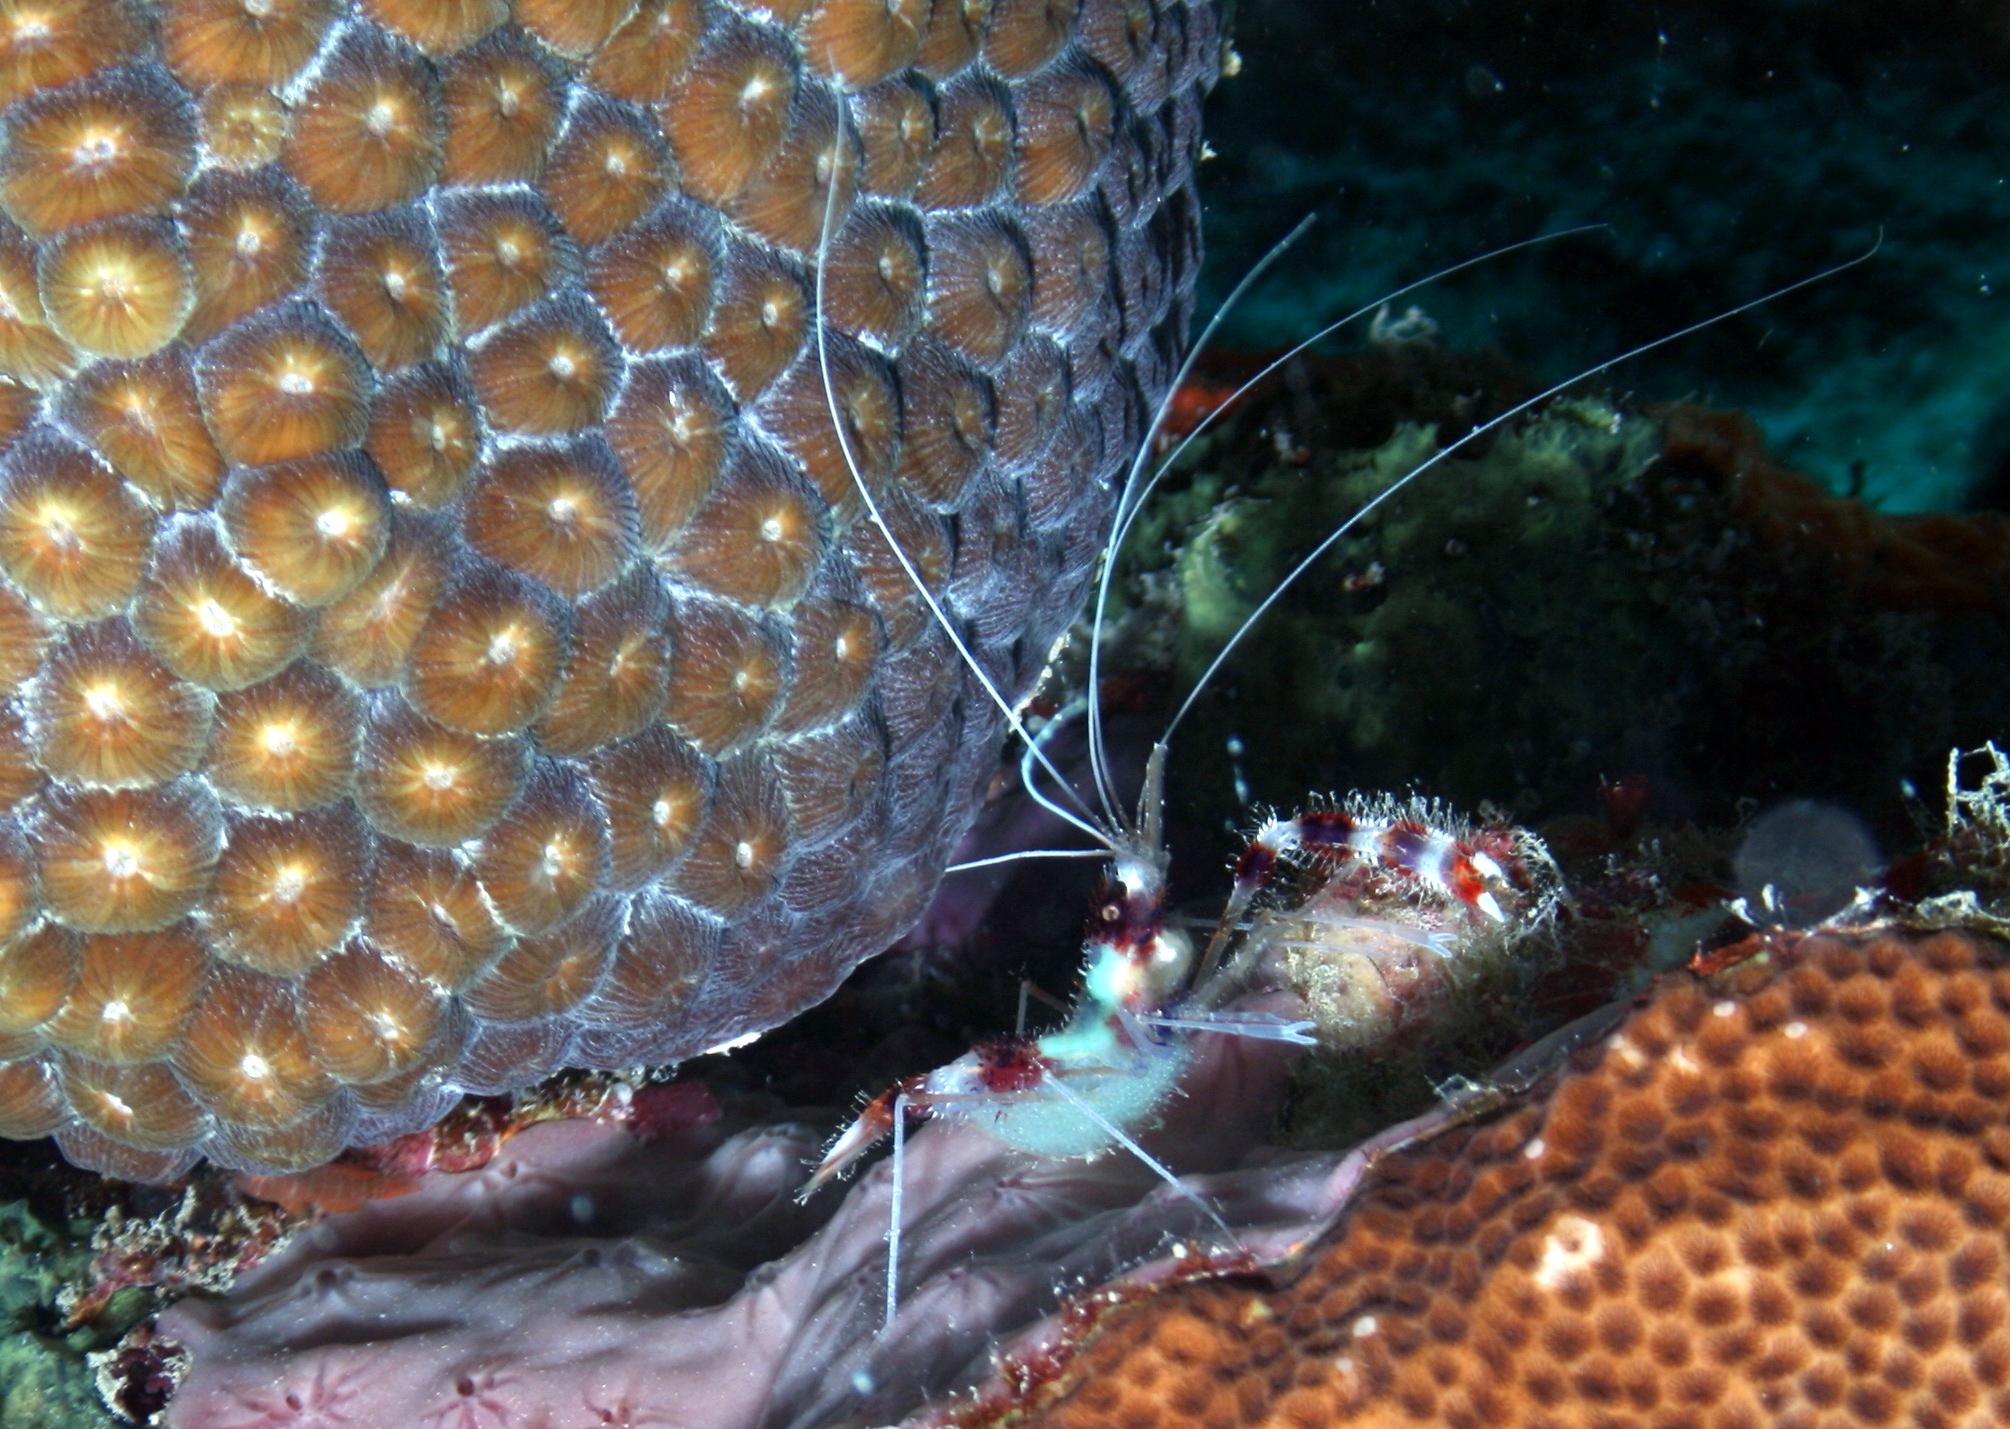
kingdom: Animalia
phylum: Arthropoda
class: Malacostraca
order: Decapoda
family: Stenopodidae
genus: Stenopus
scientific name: Stenopus hispidus
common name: Banded coral shrimp
